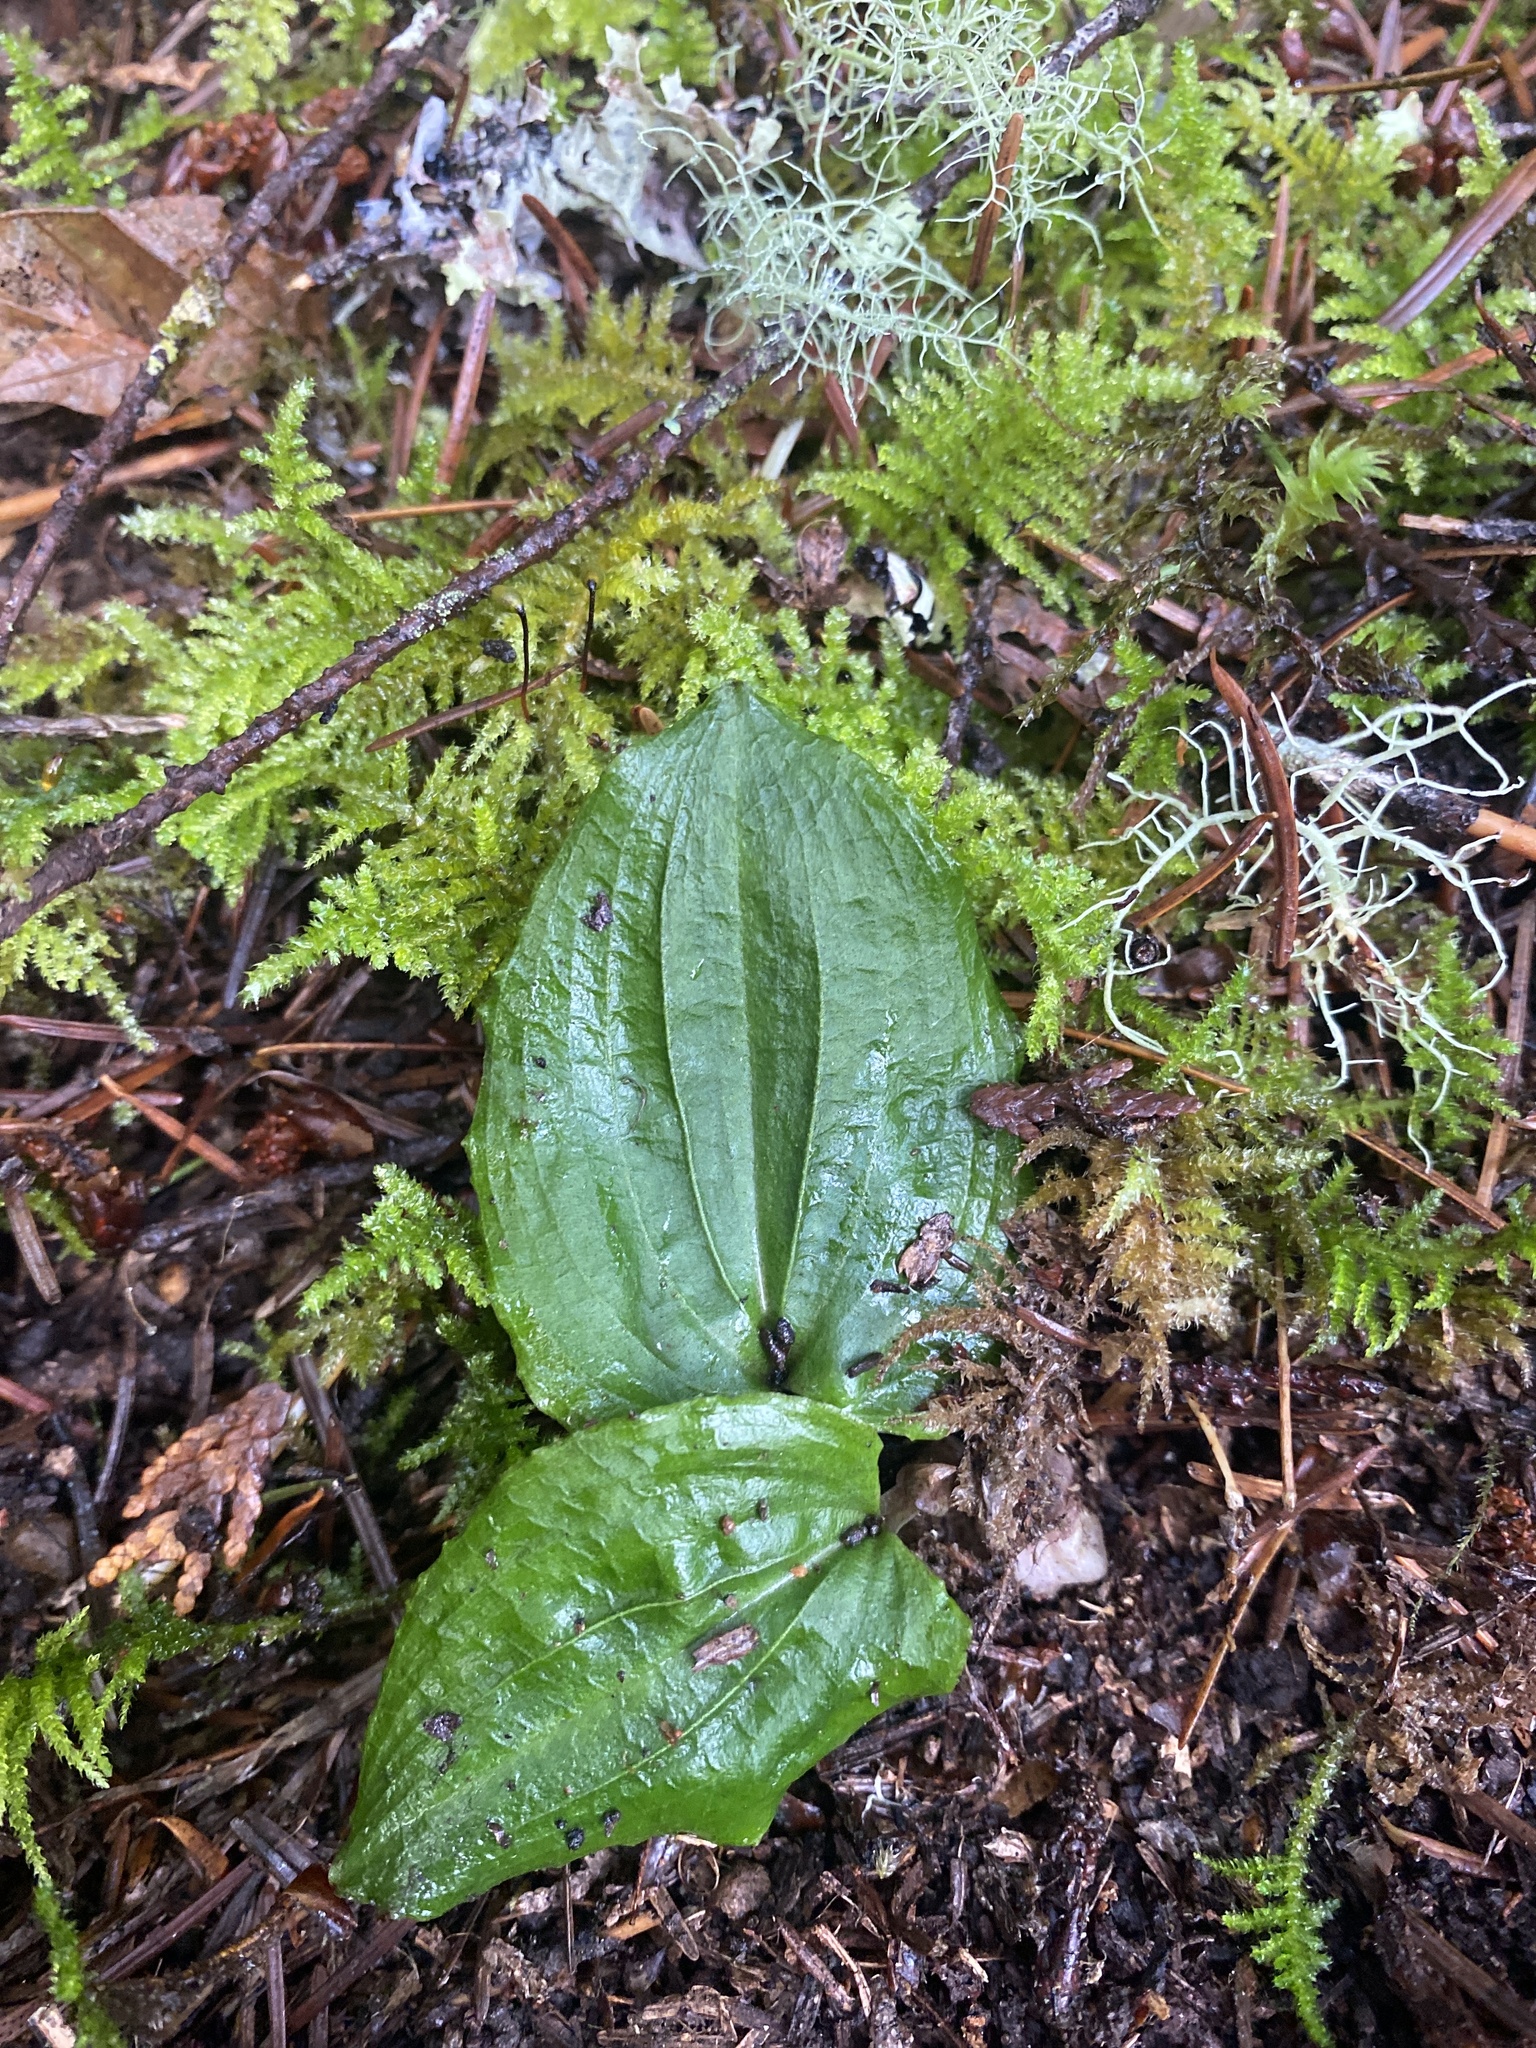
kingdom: Plantae
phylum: Tracheophyta
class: Liliopsida
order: Asparagales
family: Orchidaceae
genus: Calypso
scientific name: Calypso bulbosa
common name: Calypso
